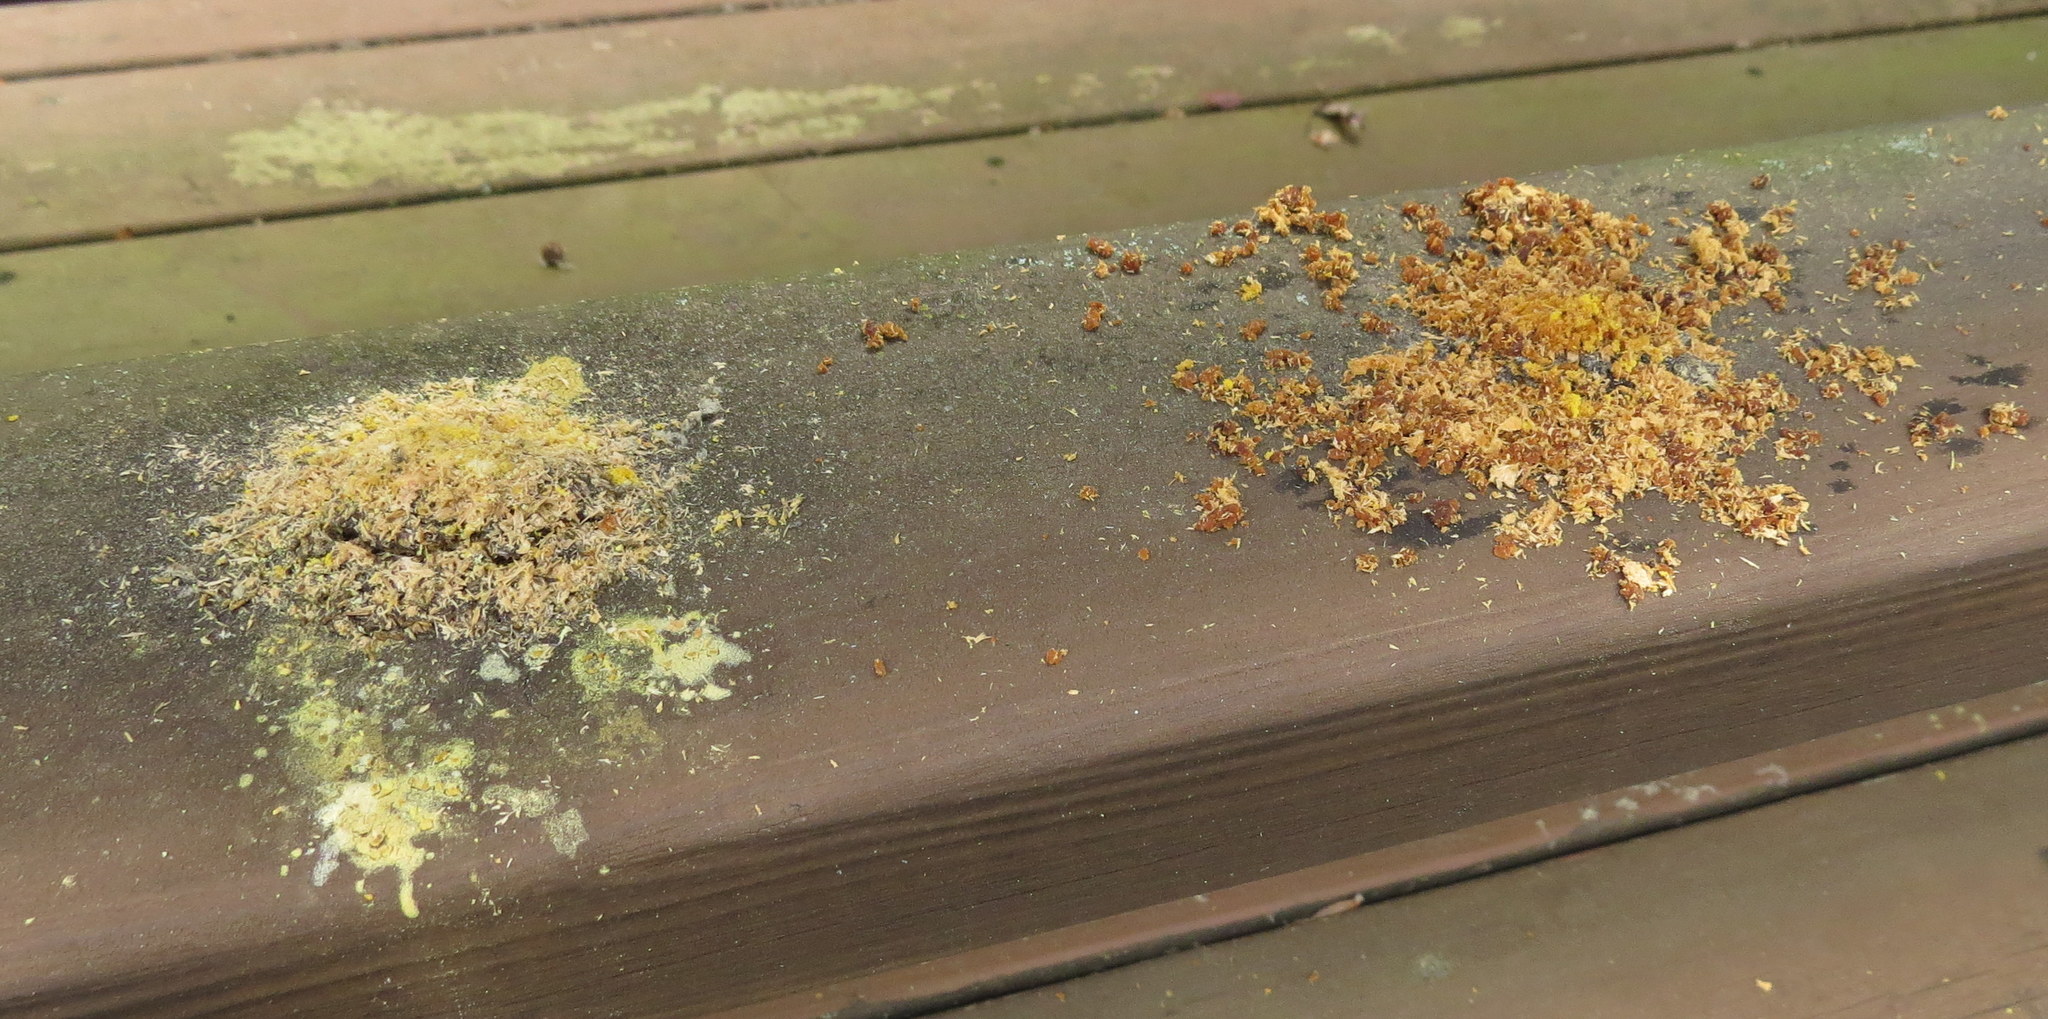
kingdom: Animalia
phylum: Arthropoda
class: Insecta
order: Hymenoptera
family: Apidae
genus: Xylocopa
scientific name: Xylocopa virginica
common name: Carpenter bee
